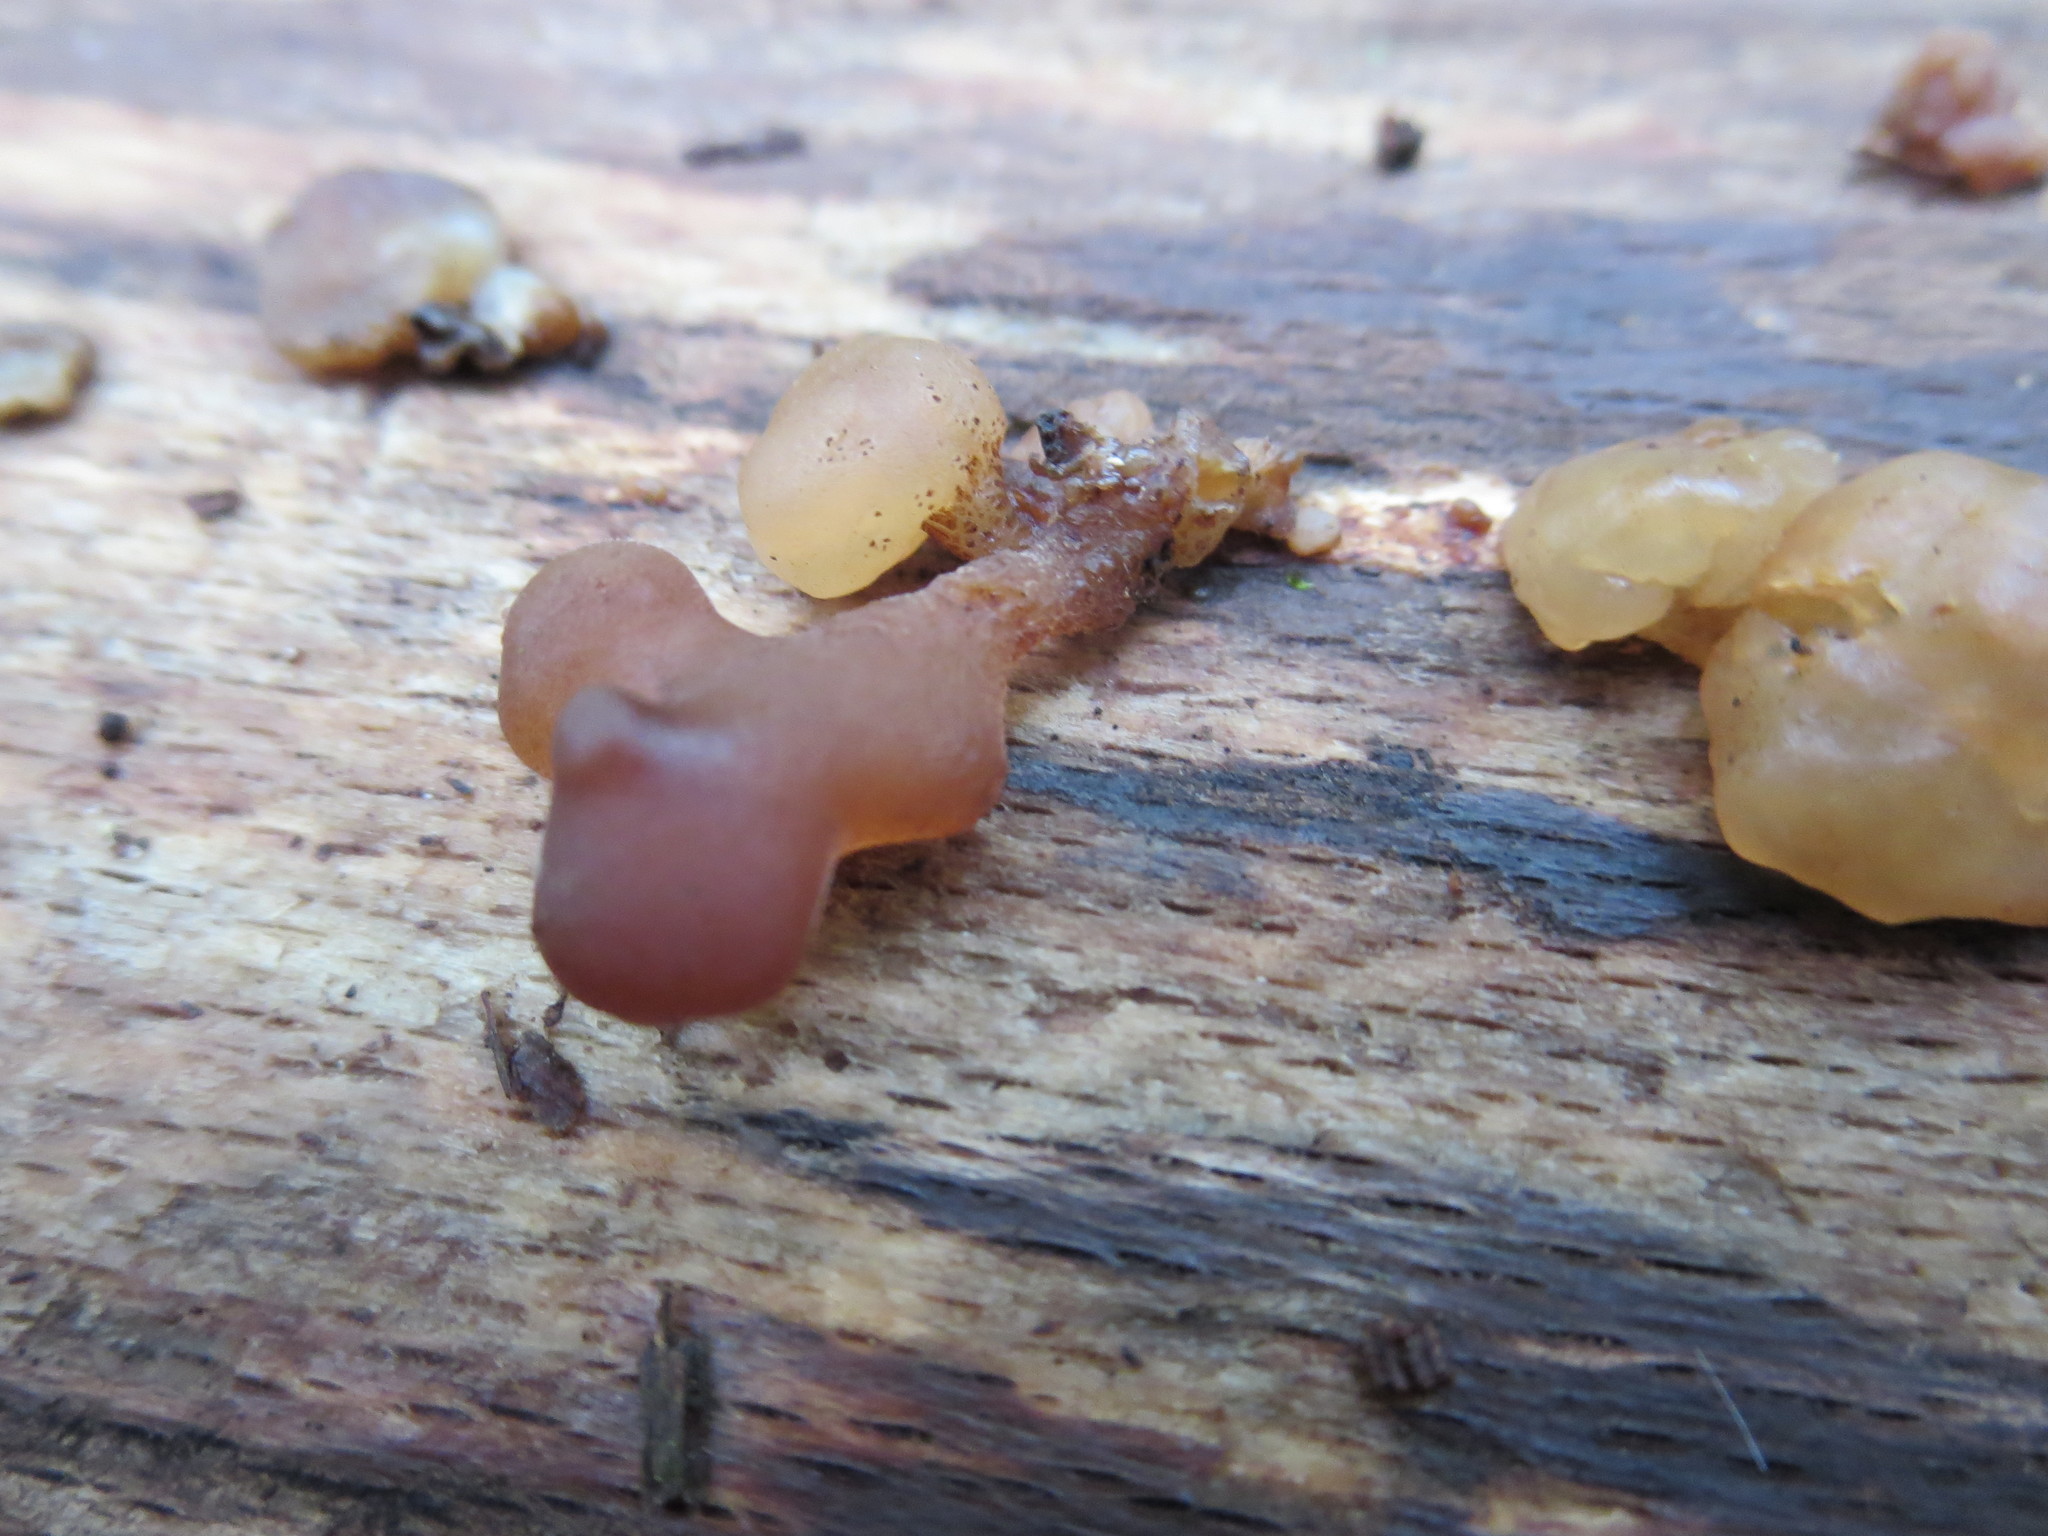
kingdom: Fungi
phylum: Ascomycota
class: Leotiomycetes
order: Helotiales
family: Gelatinodiscaceae
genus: Ascotremella
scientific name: Ascotremella faginea
